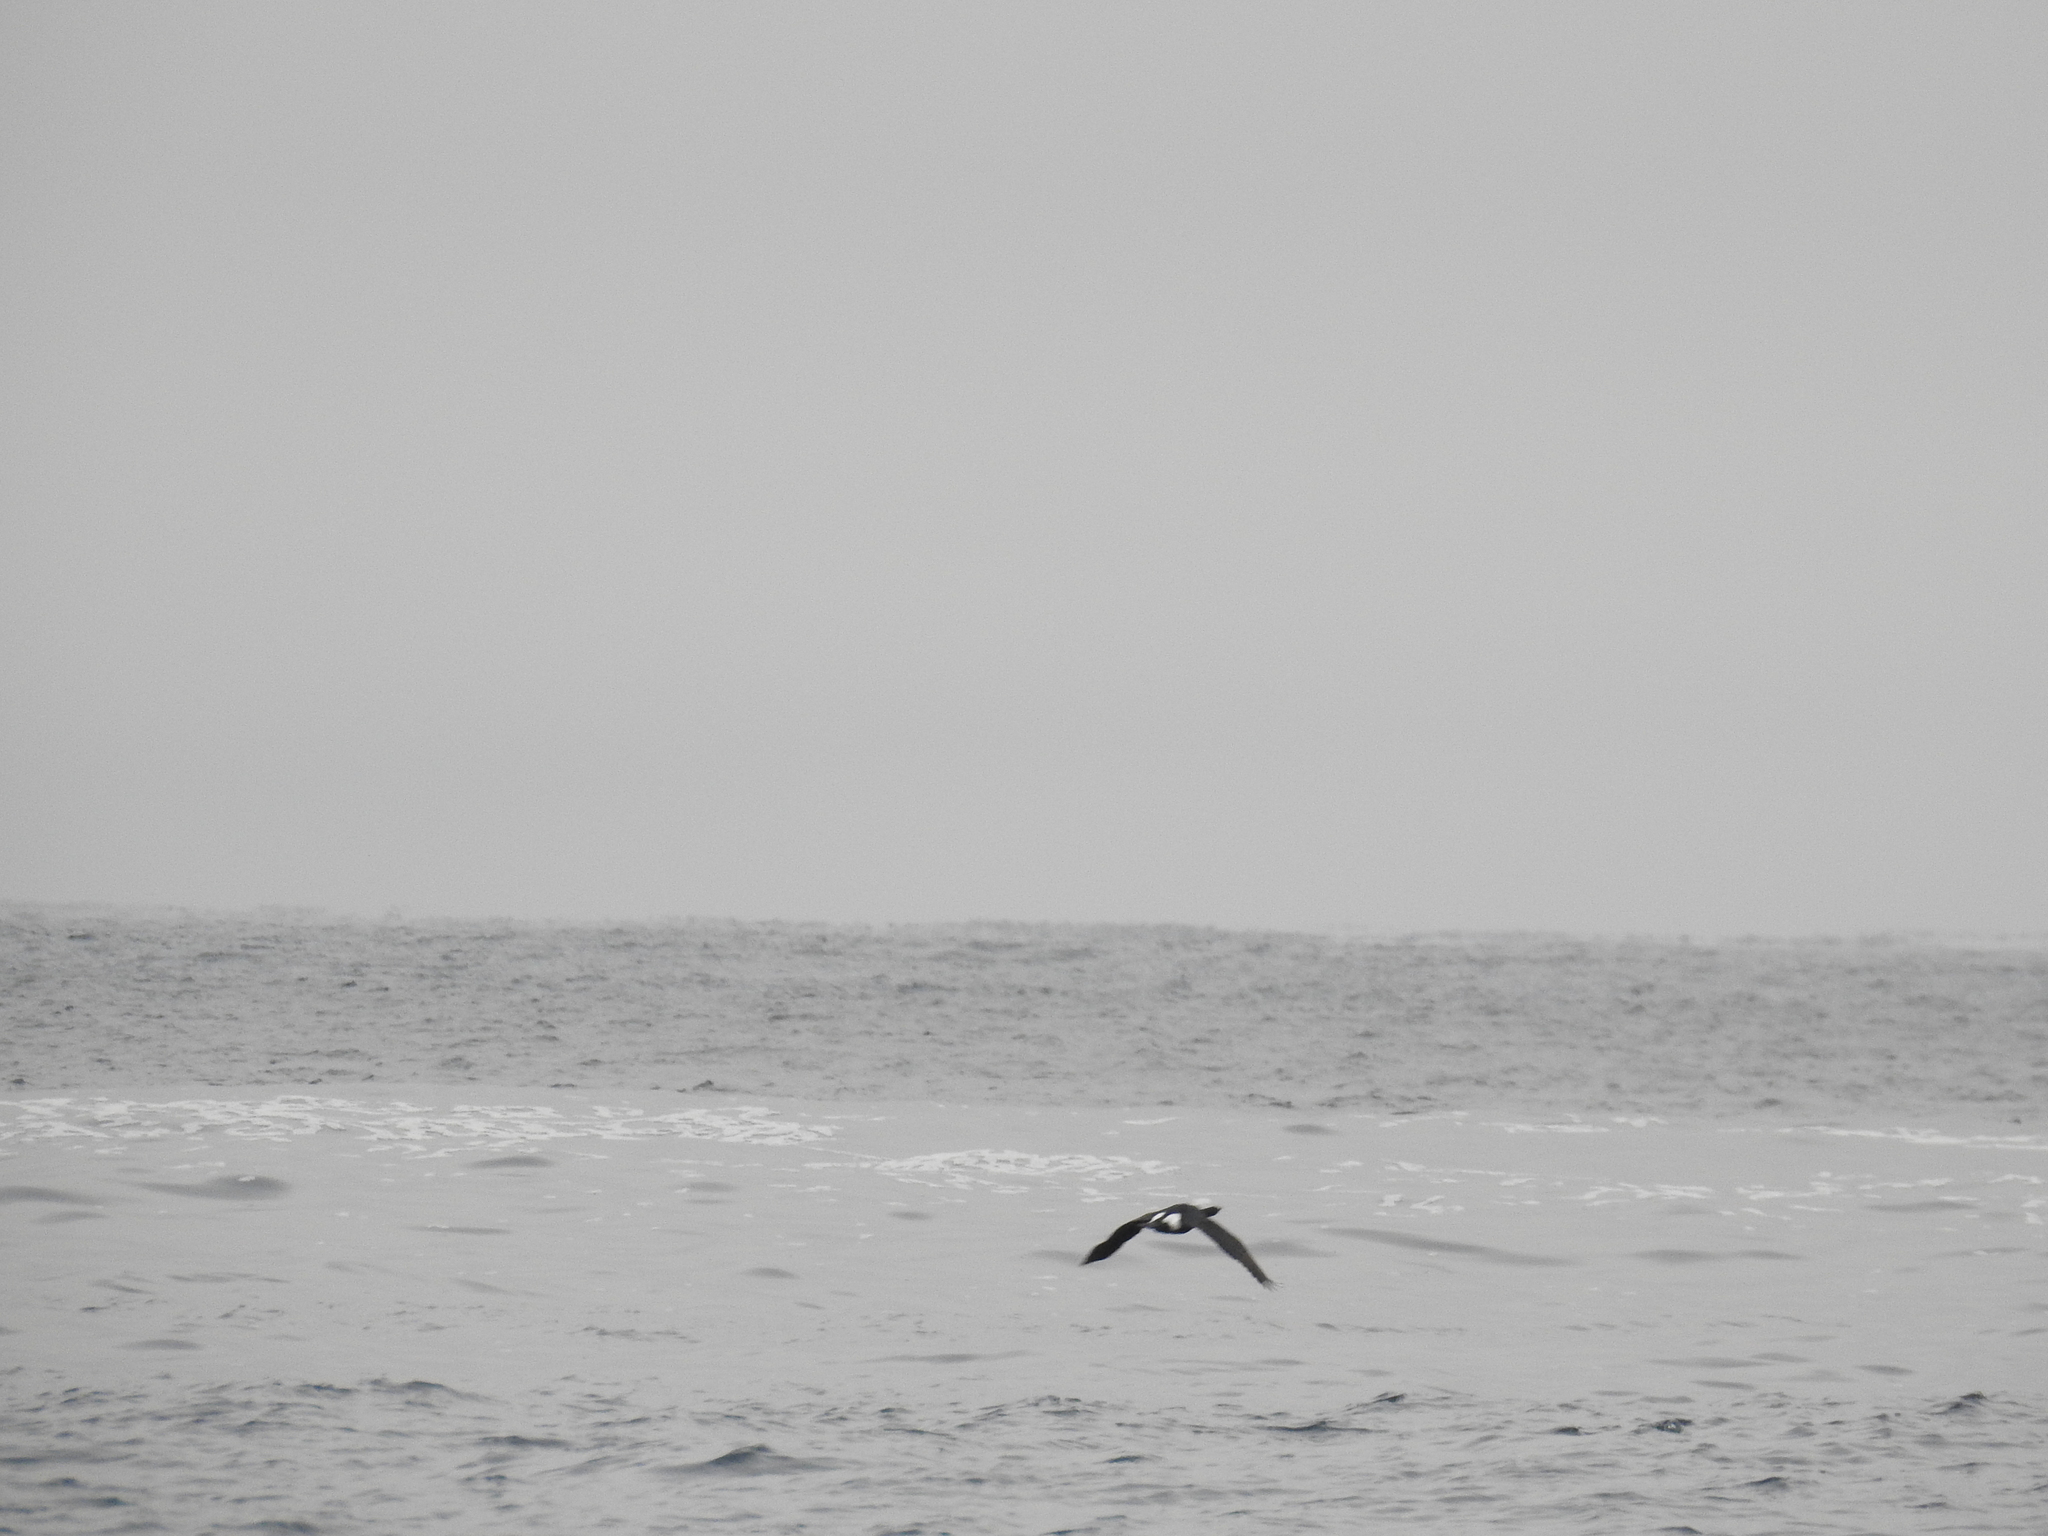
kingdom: Animalia
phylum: Chordata
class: Aves
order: Suliformes
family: Phalacrocoracidae
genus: Phalacrocorax
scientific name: Phalacrocorax pelagicus
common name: Pelagic cormorant
